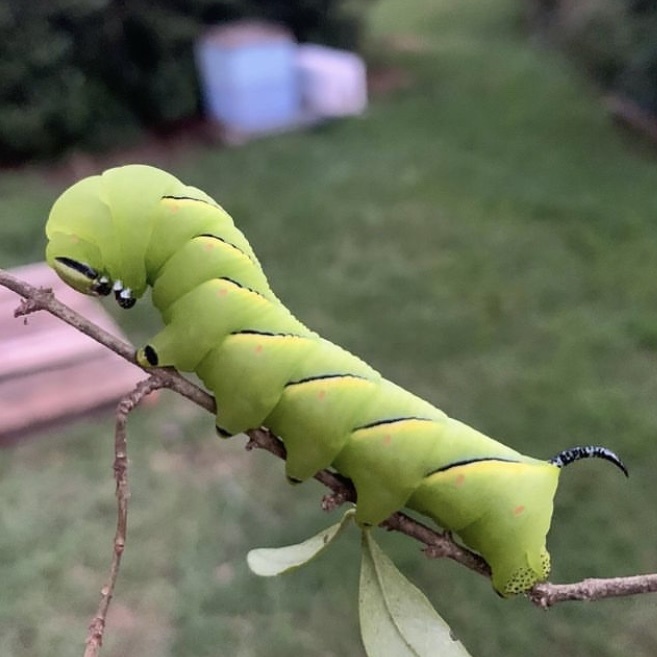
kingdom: Animalia
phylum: Arthropoda
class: Insecta
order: Lepidoptera
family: Sphingidae
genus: Sphinx
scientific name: Sphinx kalmiae
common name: Laurel sphinx
